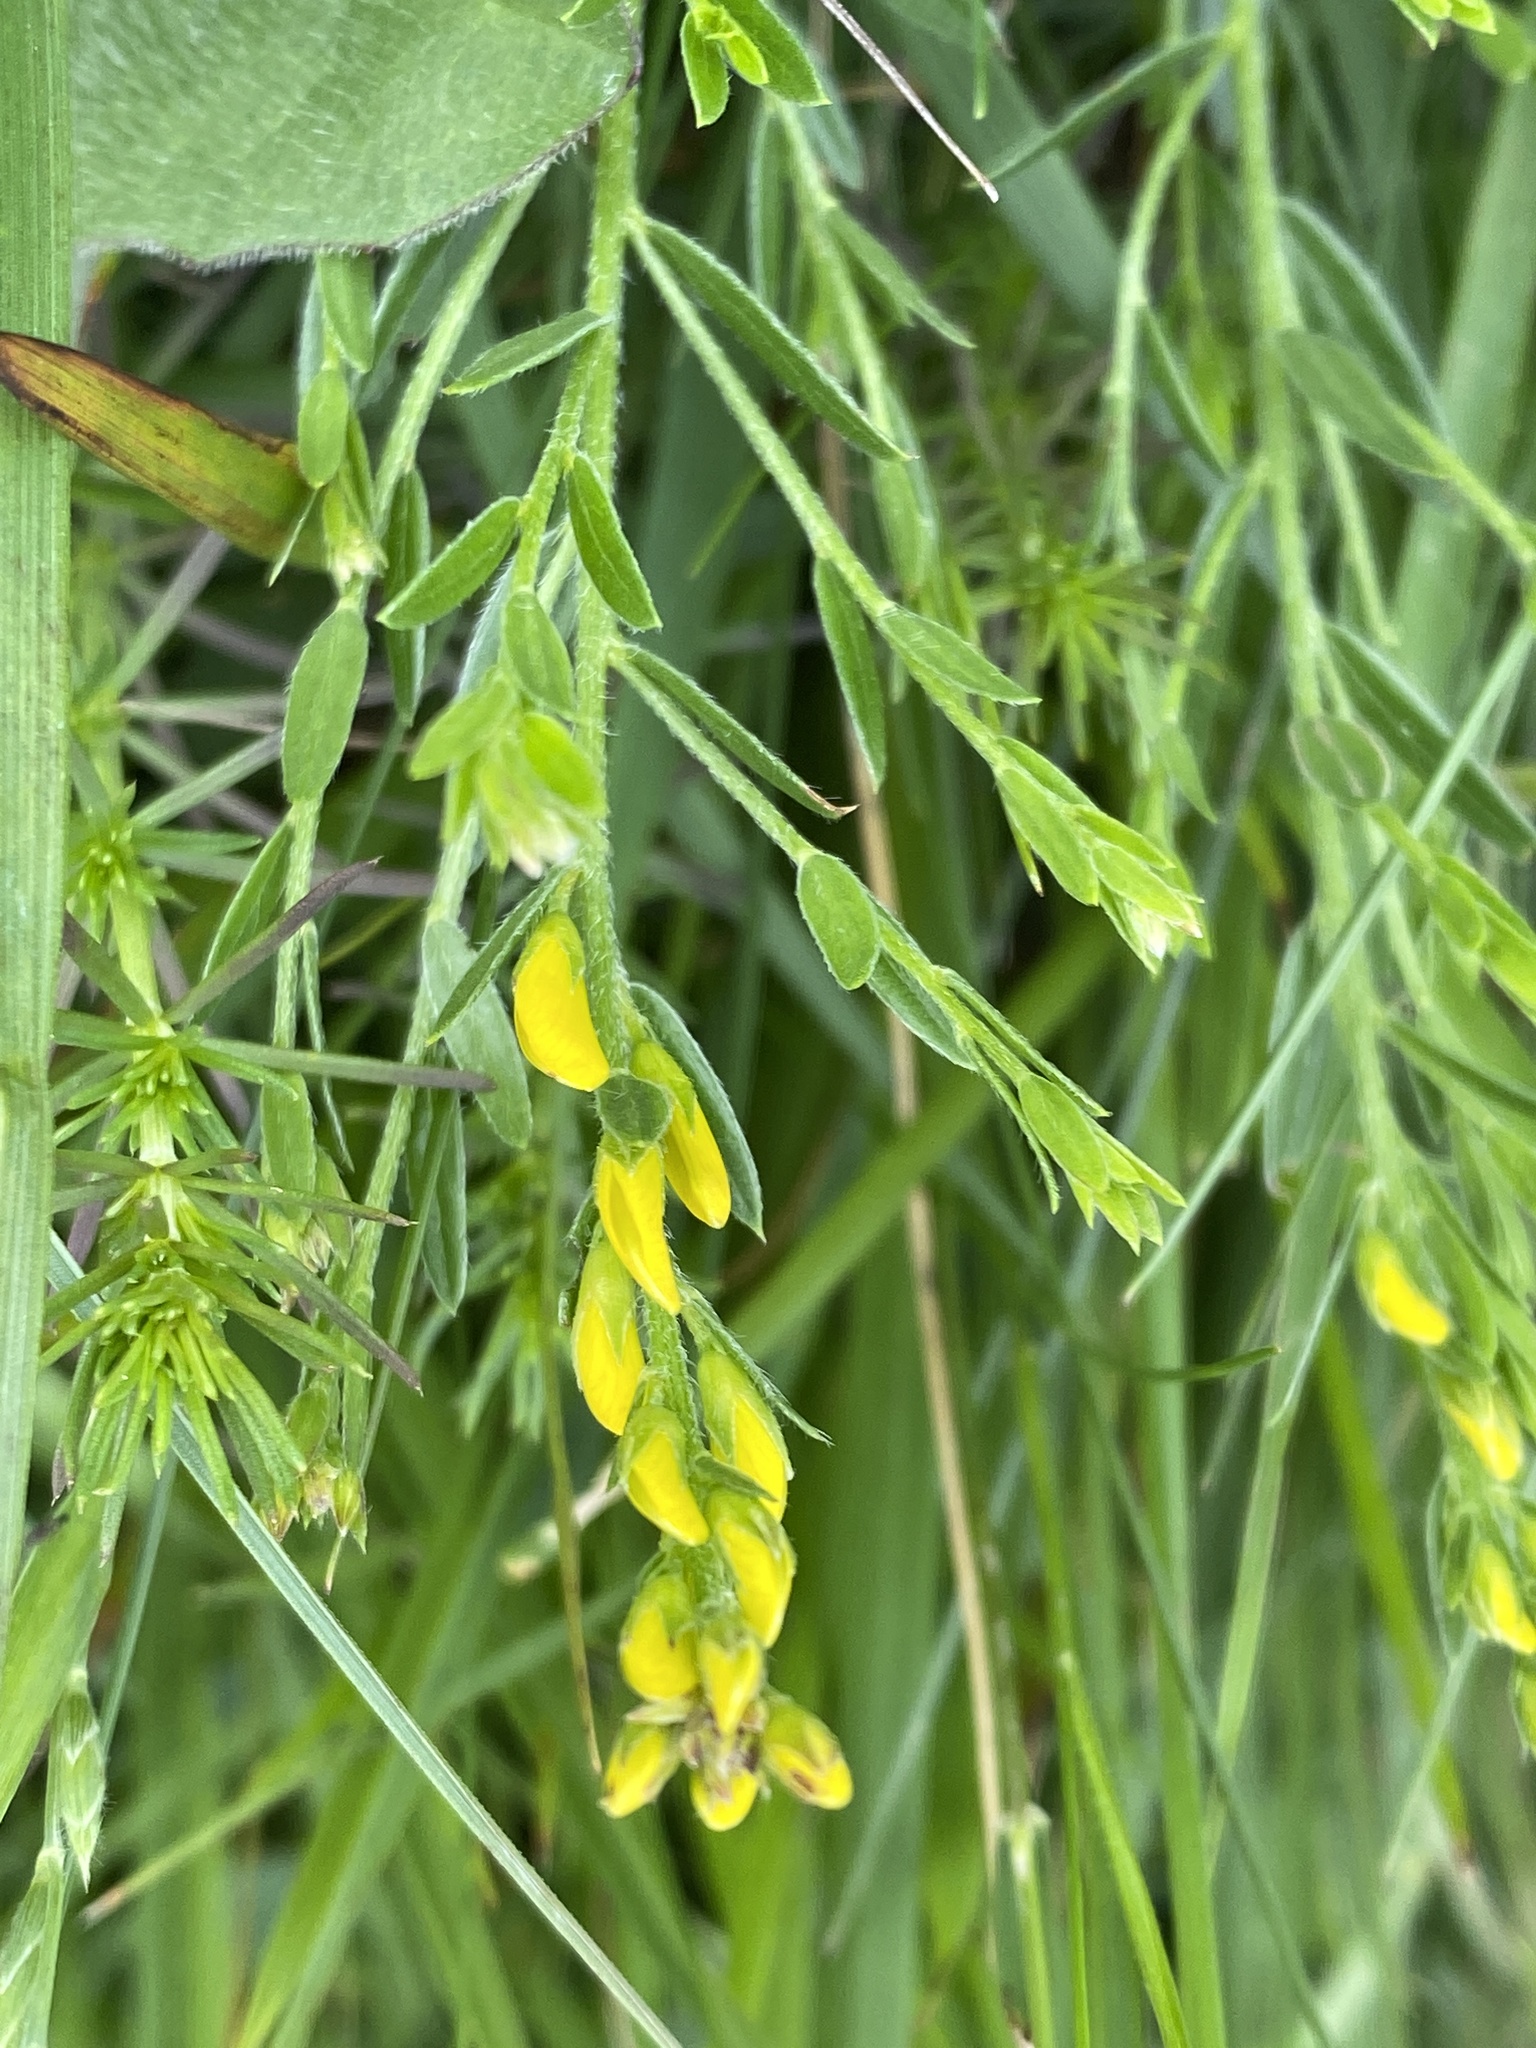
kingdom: Plantae
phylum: Tracheophyta
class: Magnoliopsida
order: Fabales
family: Fabaceae
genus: Genista
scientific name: Genista tinctoria
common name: Dyer's greenweed
